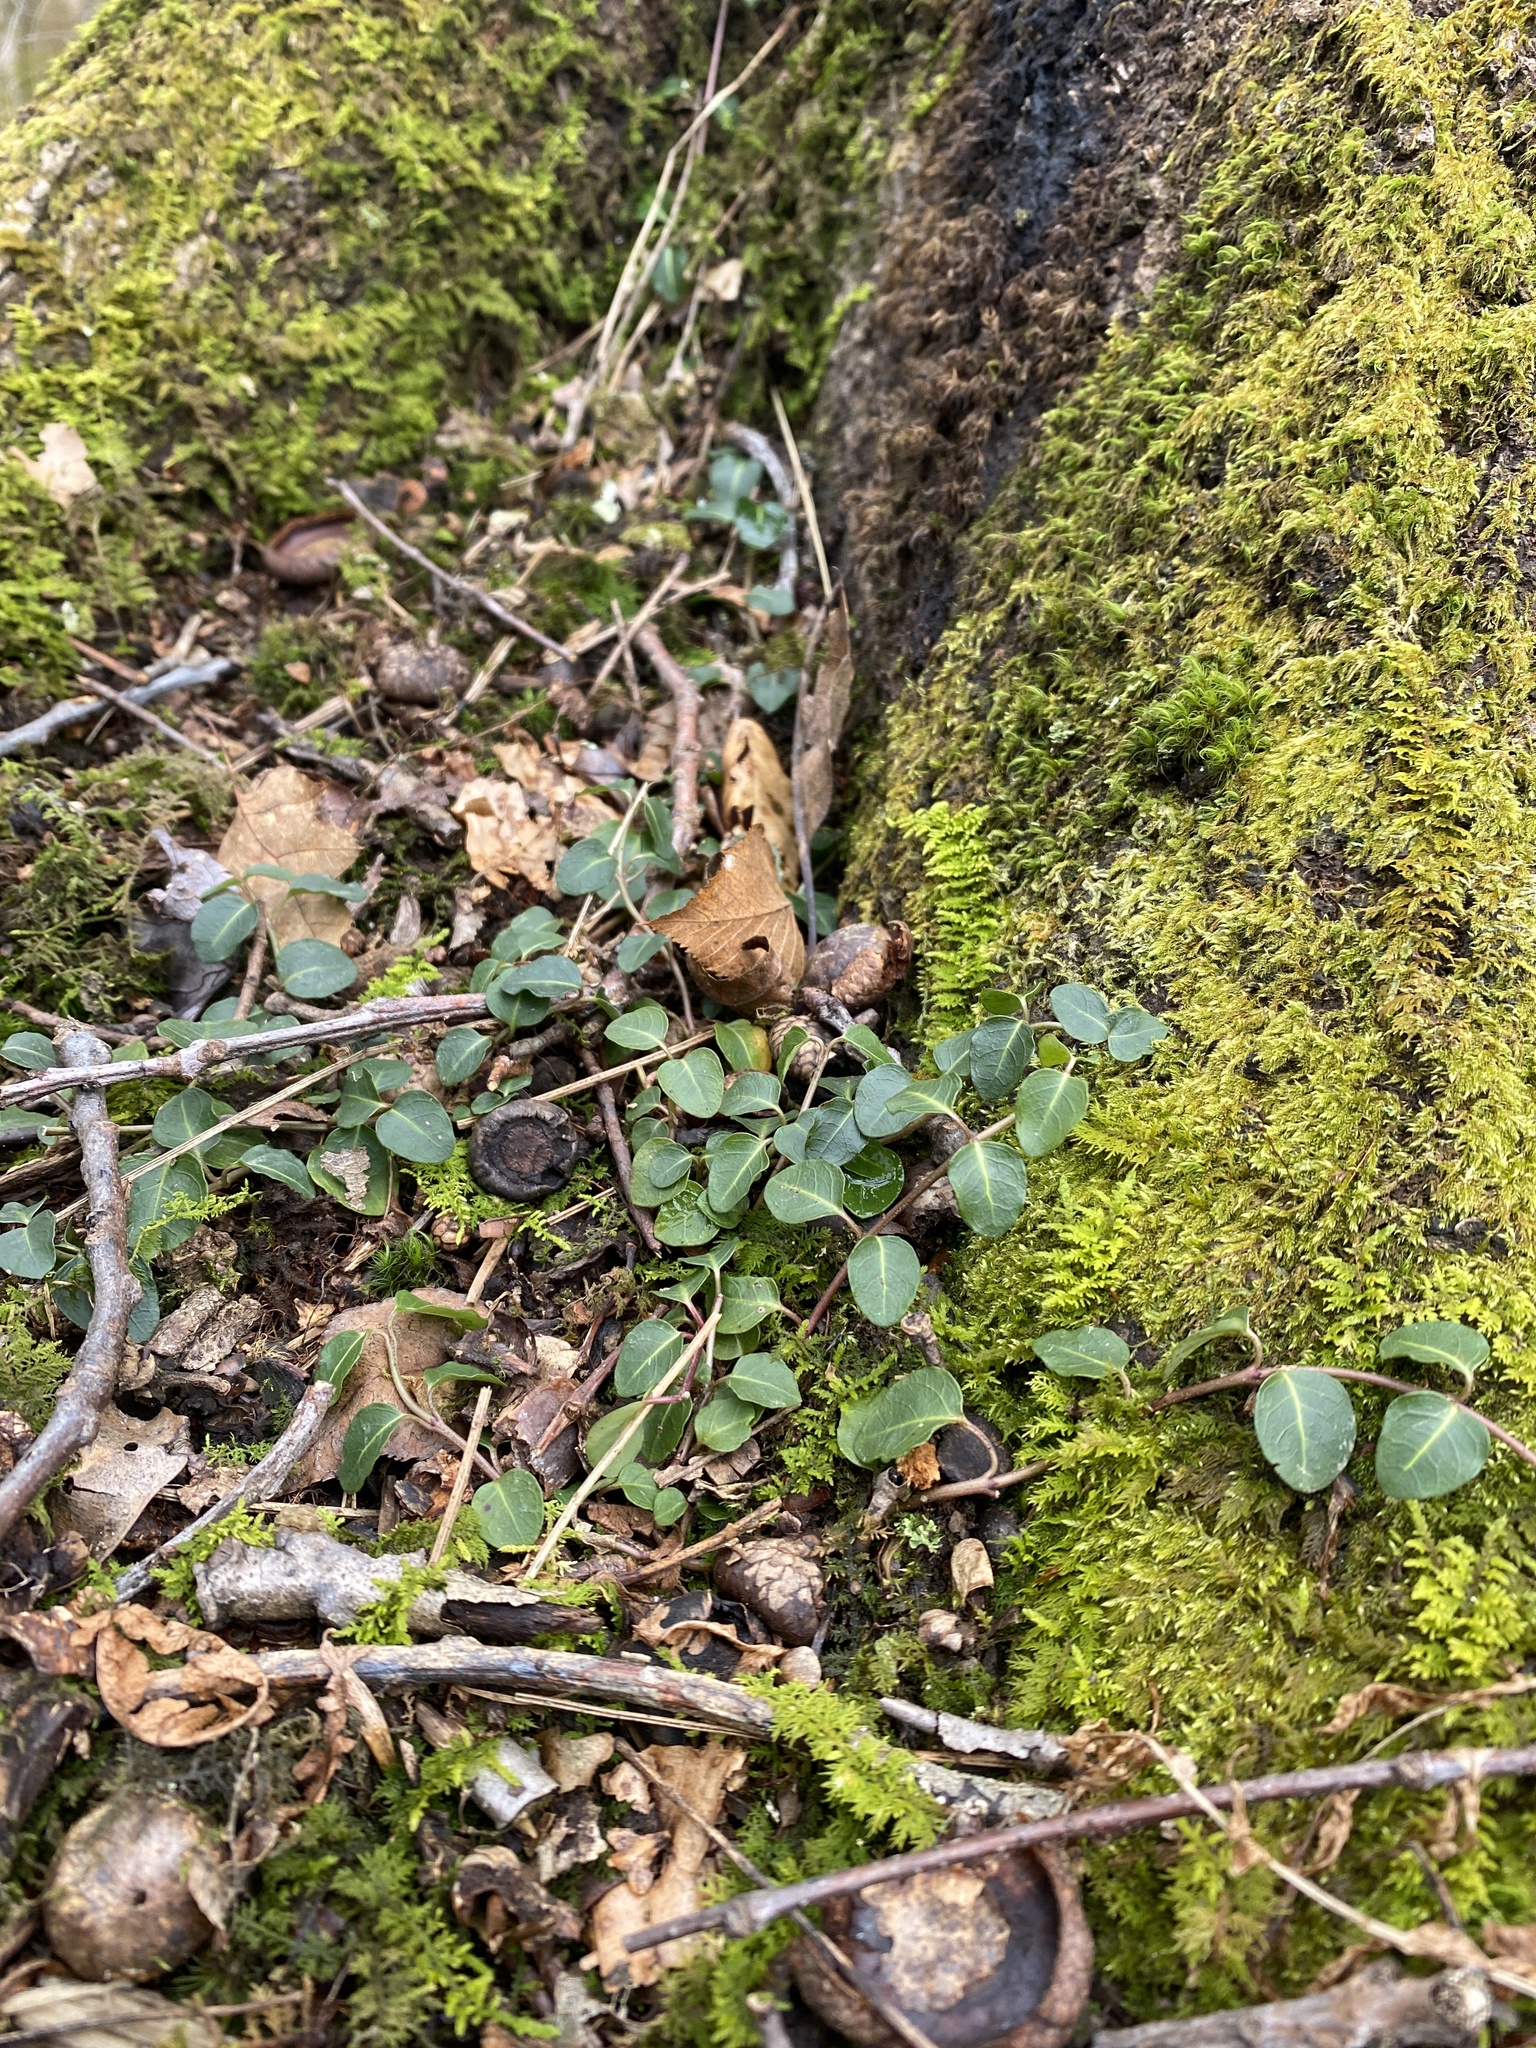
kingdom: Plantae
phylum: Tracheophyta
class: Magnoliopsida
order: Gentianales
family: Rubiaceae
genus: Mitchella
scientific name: Mitchella repens
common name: Partridge-berry
